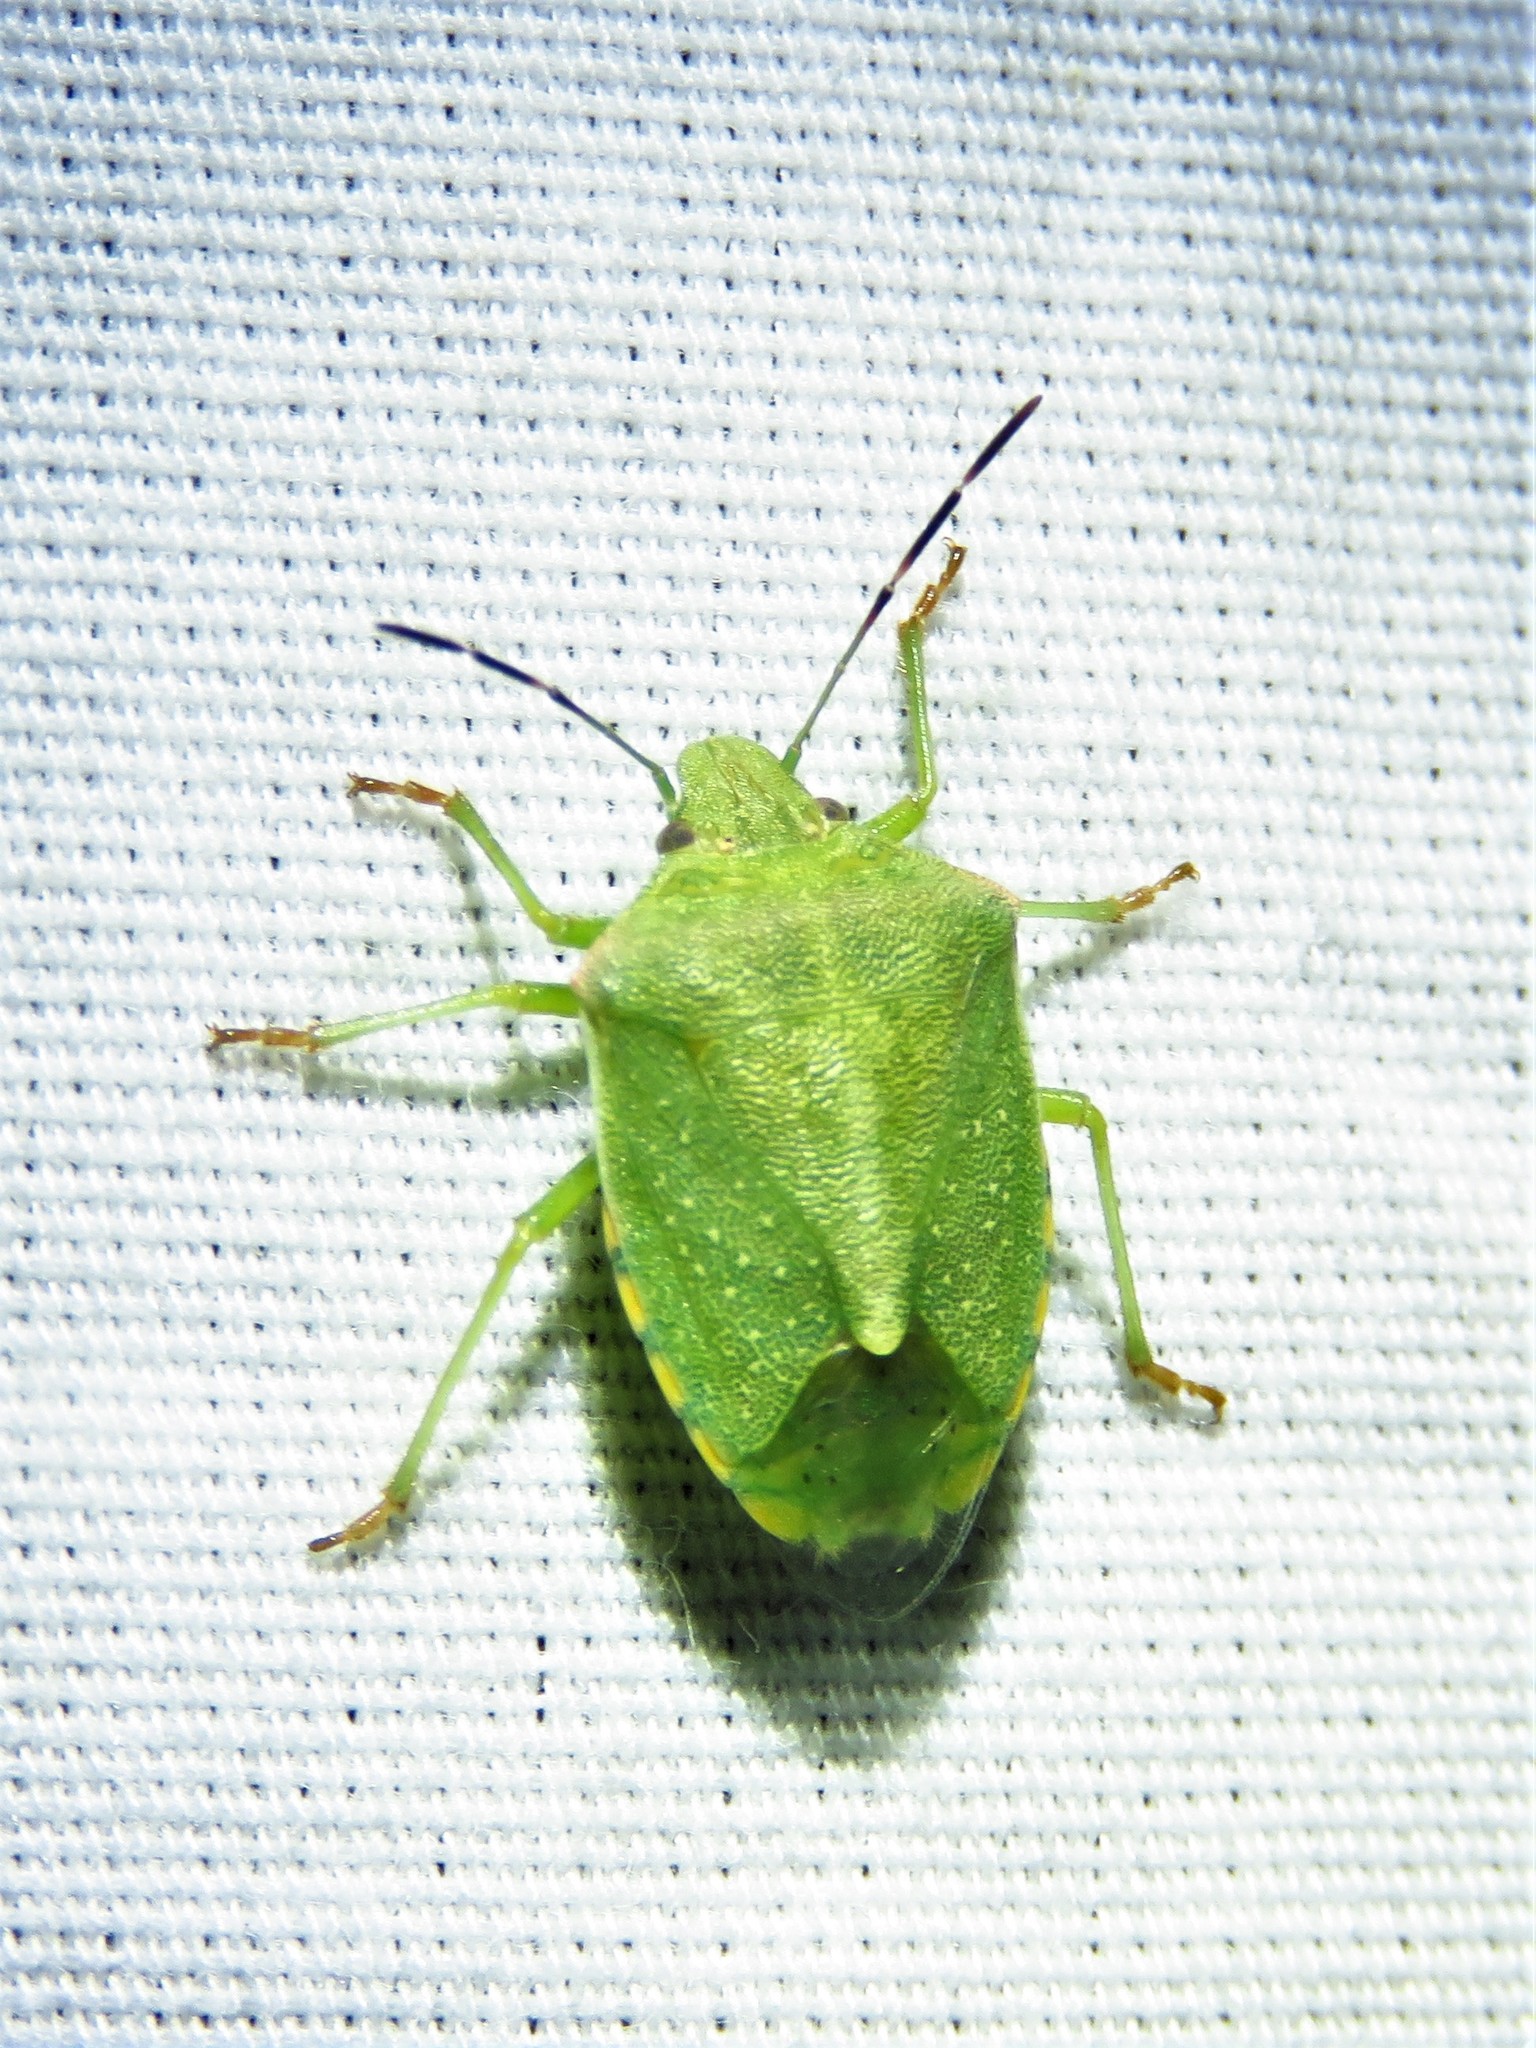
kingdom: Animalia
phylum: Arthropoda
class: Insecta
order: Hemiptera
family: Pentatomidae
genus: Thyanta
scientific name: Thyanta custator
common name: Stink bug
